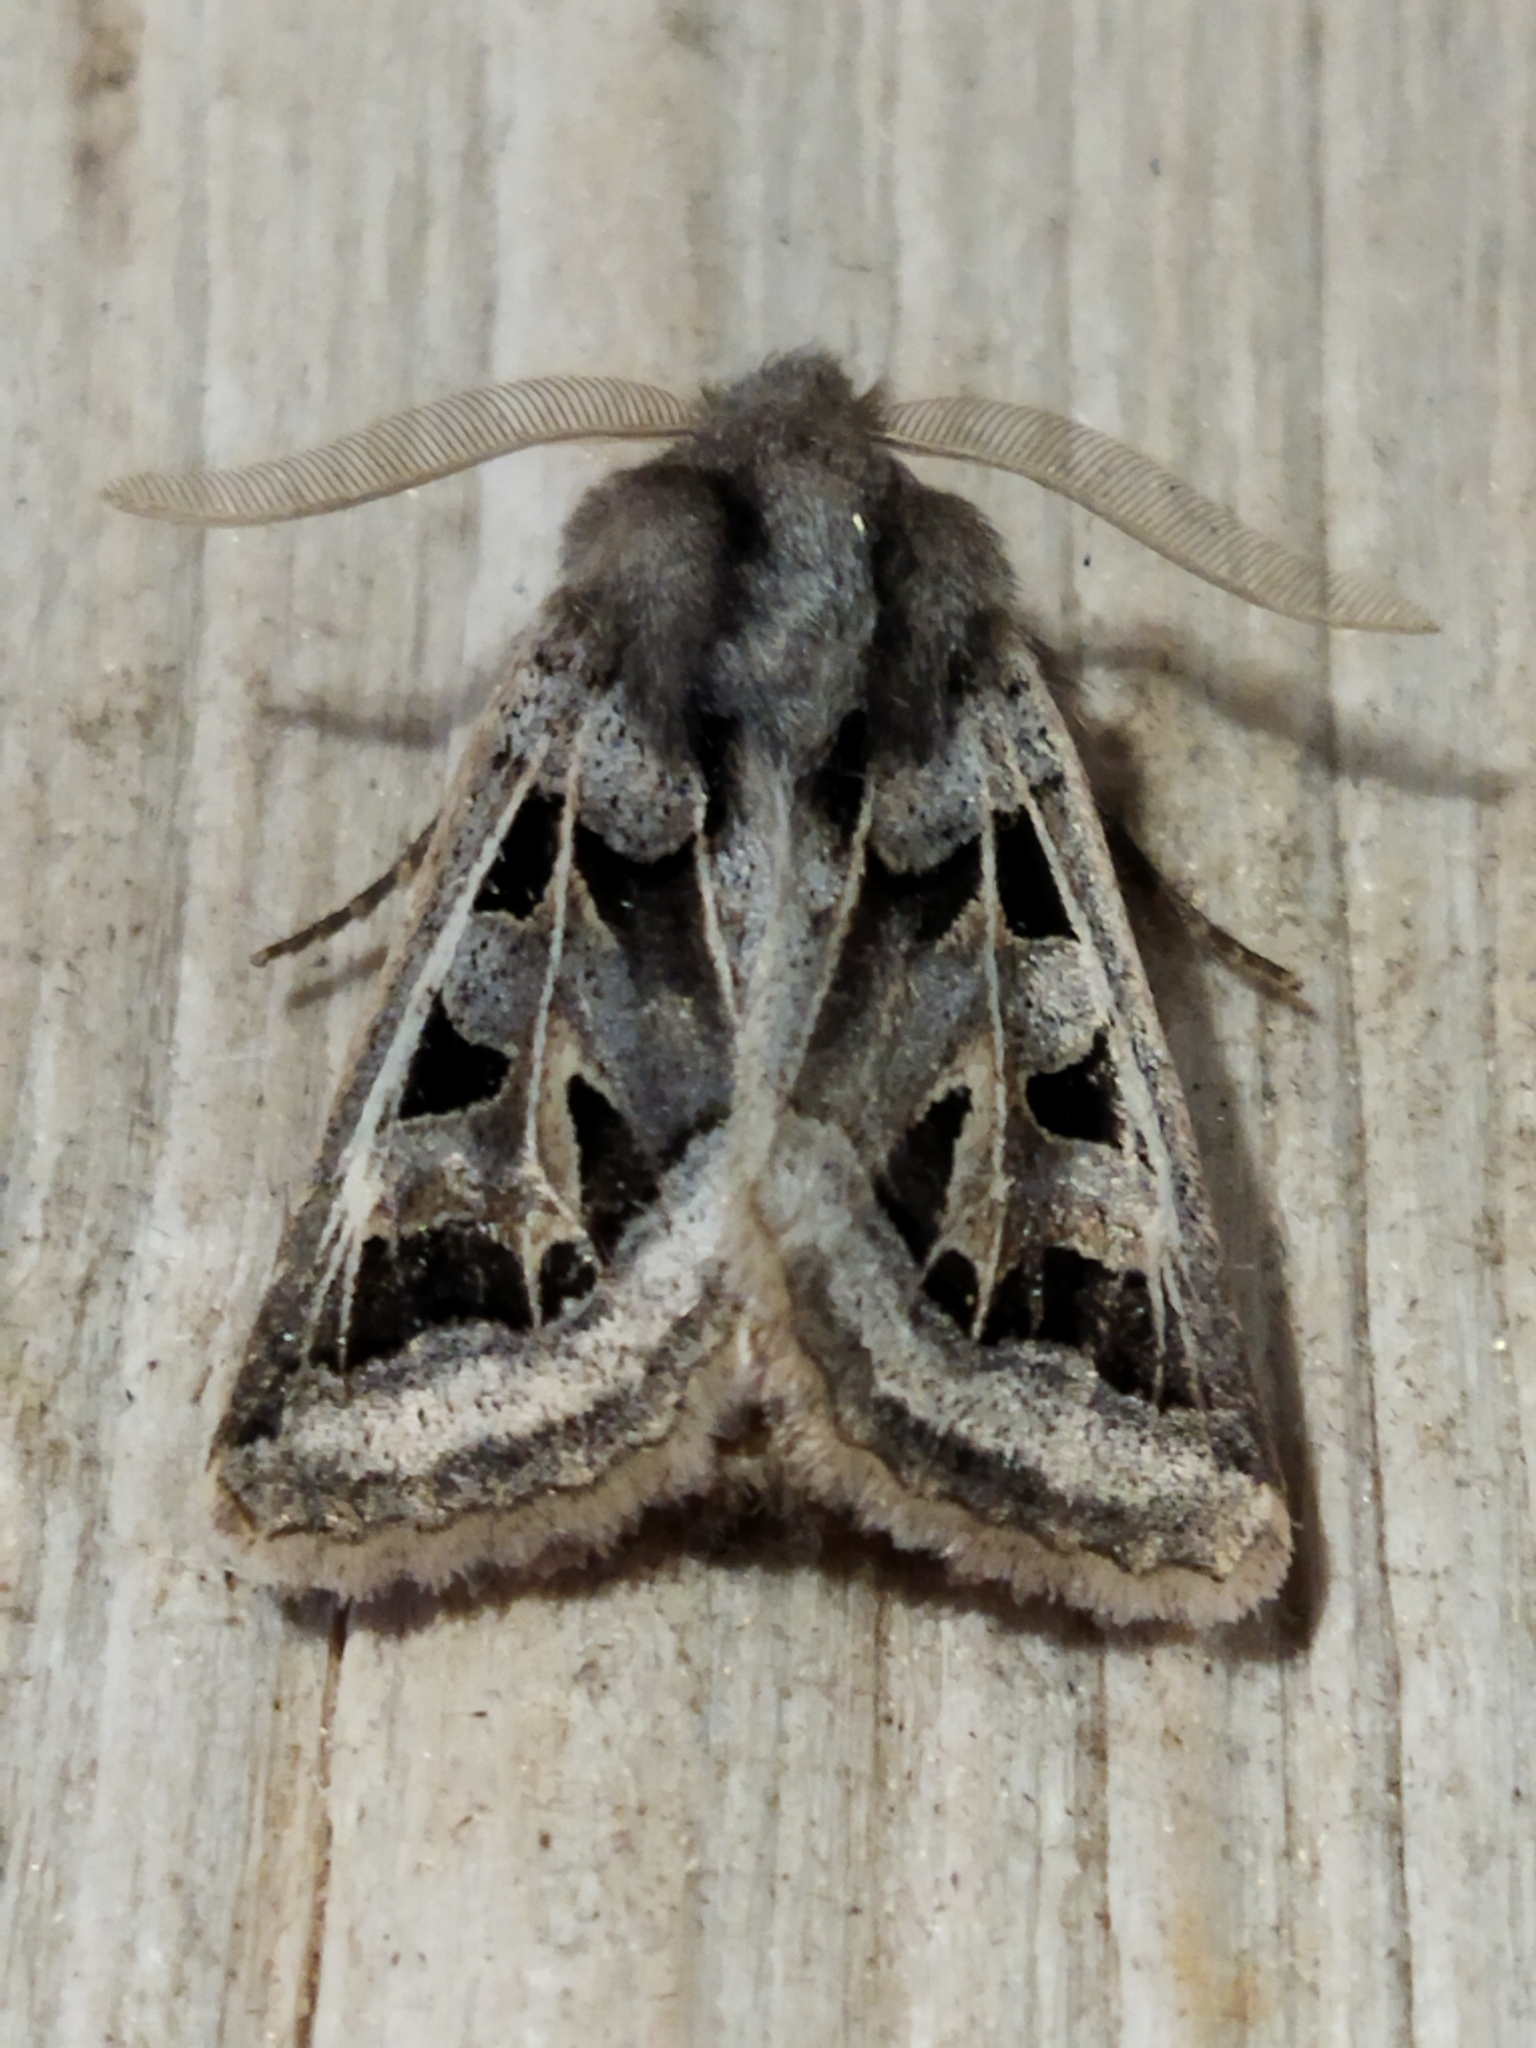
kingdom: Animalia
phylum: Arthropoda
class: Insecta
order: Lepidoptera
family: Noctuidae
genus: Episema
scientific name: Episema glaucina
